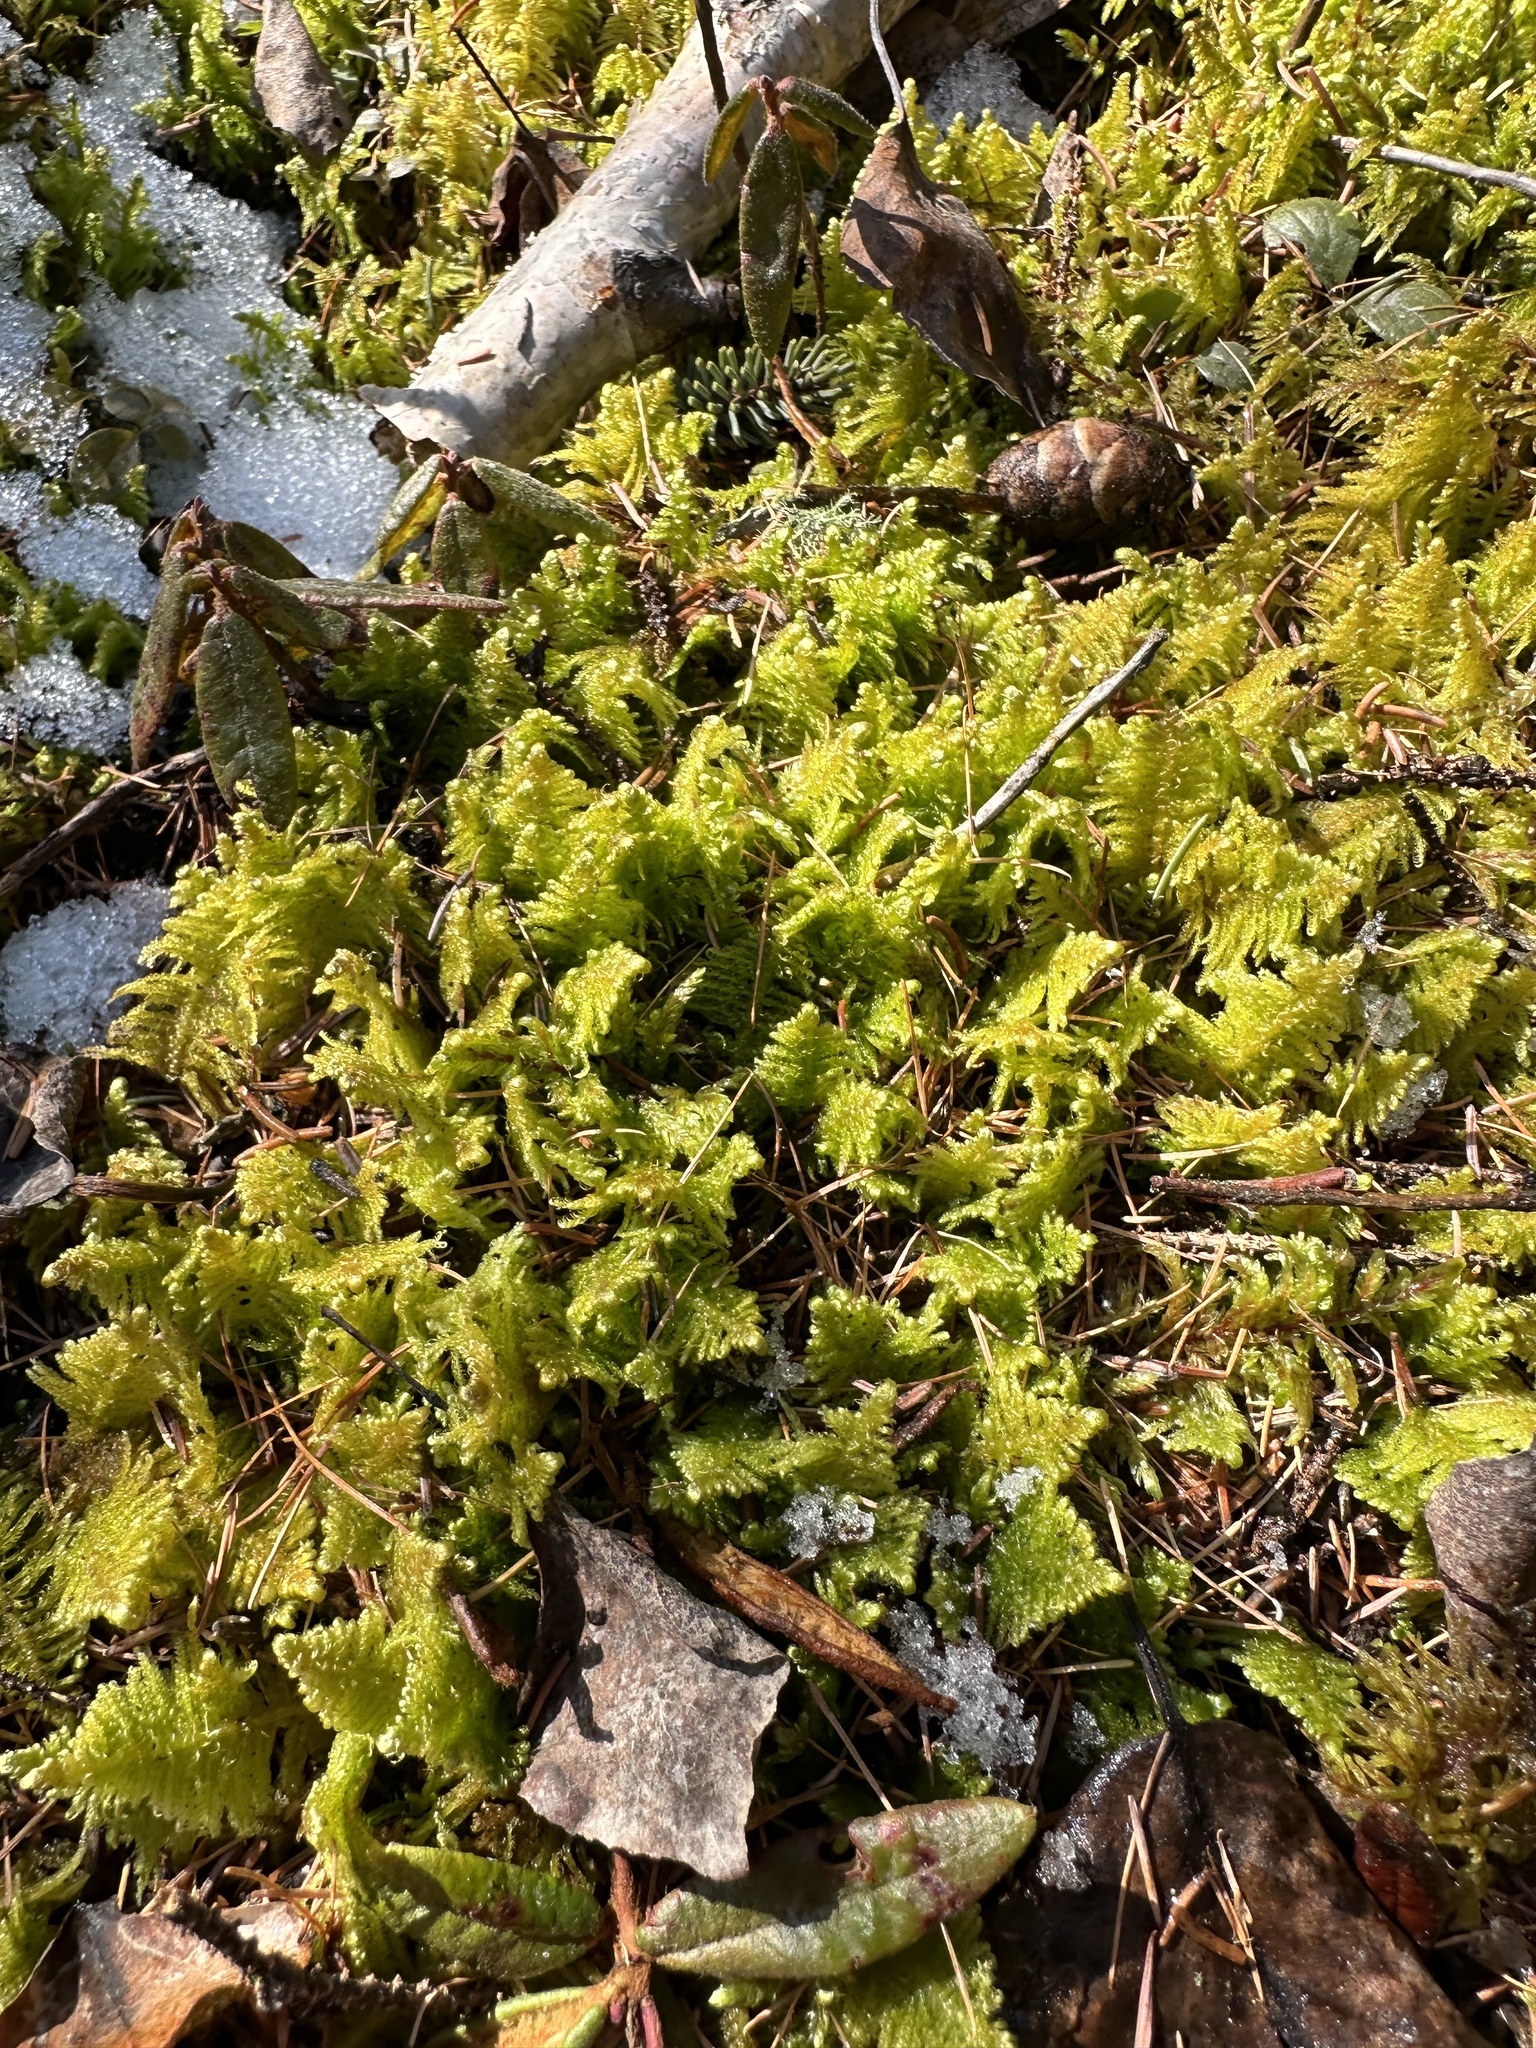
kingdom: Plantae
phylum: Bryophyta
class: Bryopsida
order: Hypnales
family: Pylaisiaceae
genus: Ptilium
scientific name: Ptilium crista-castrensis
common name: Knight's plume moss
